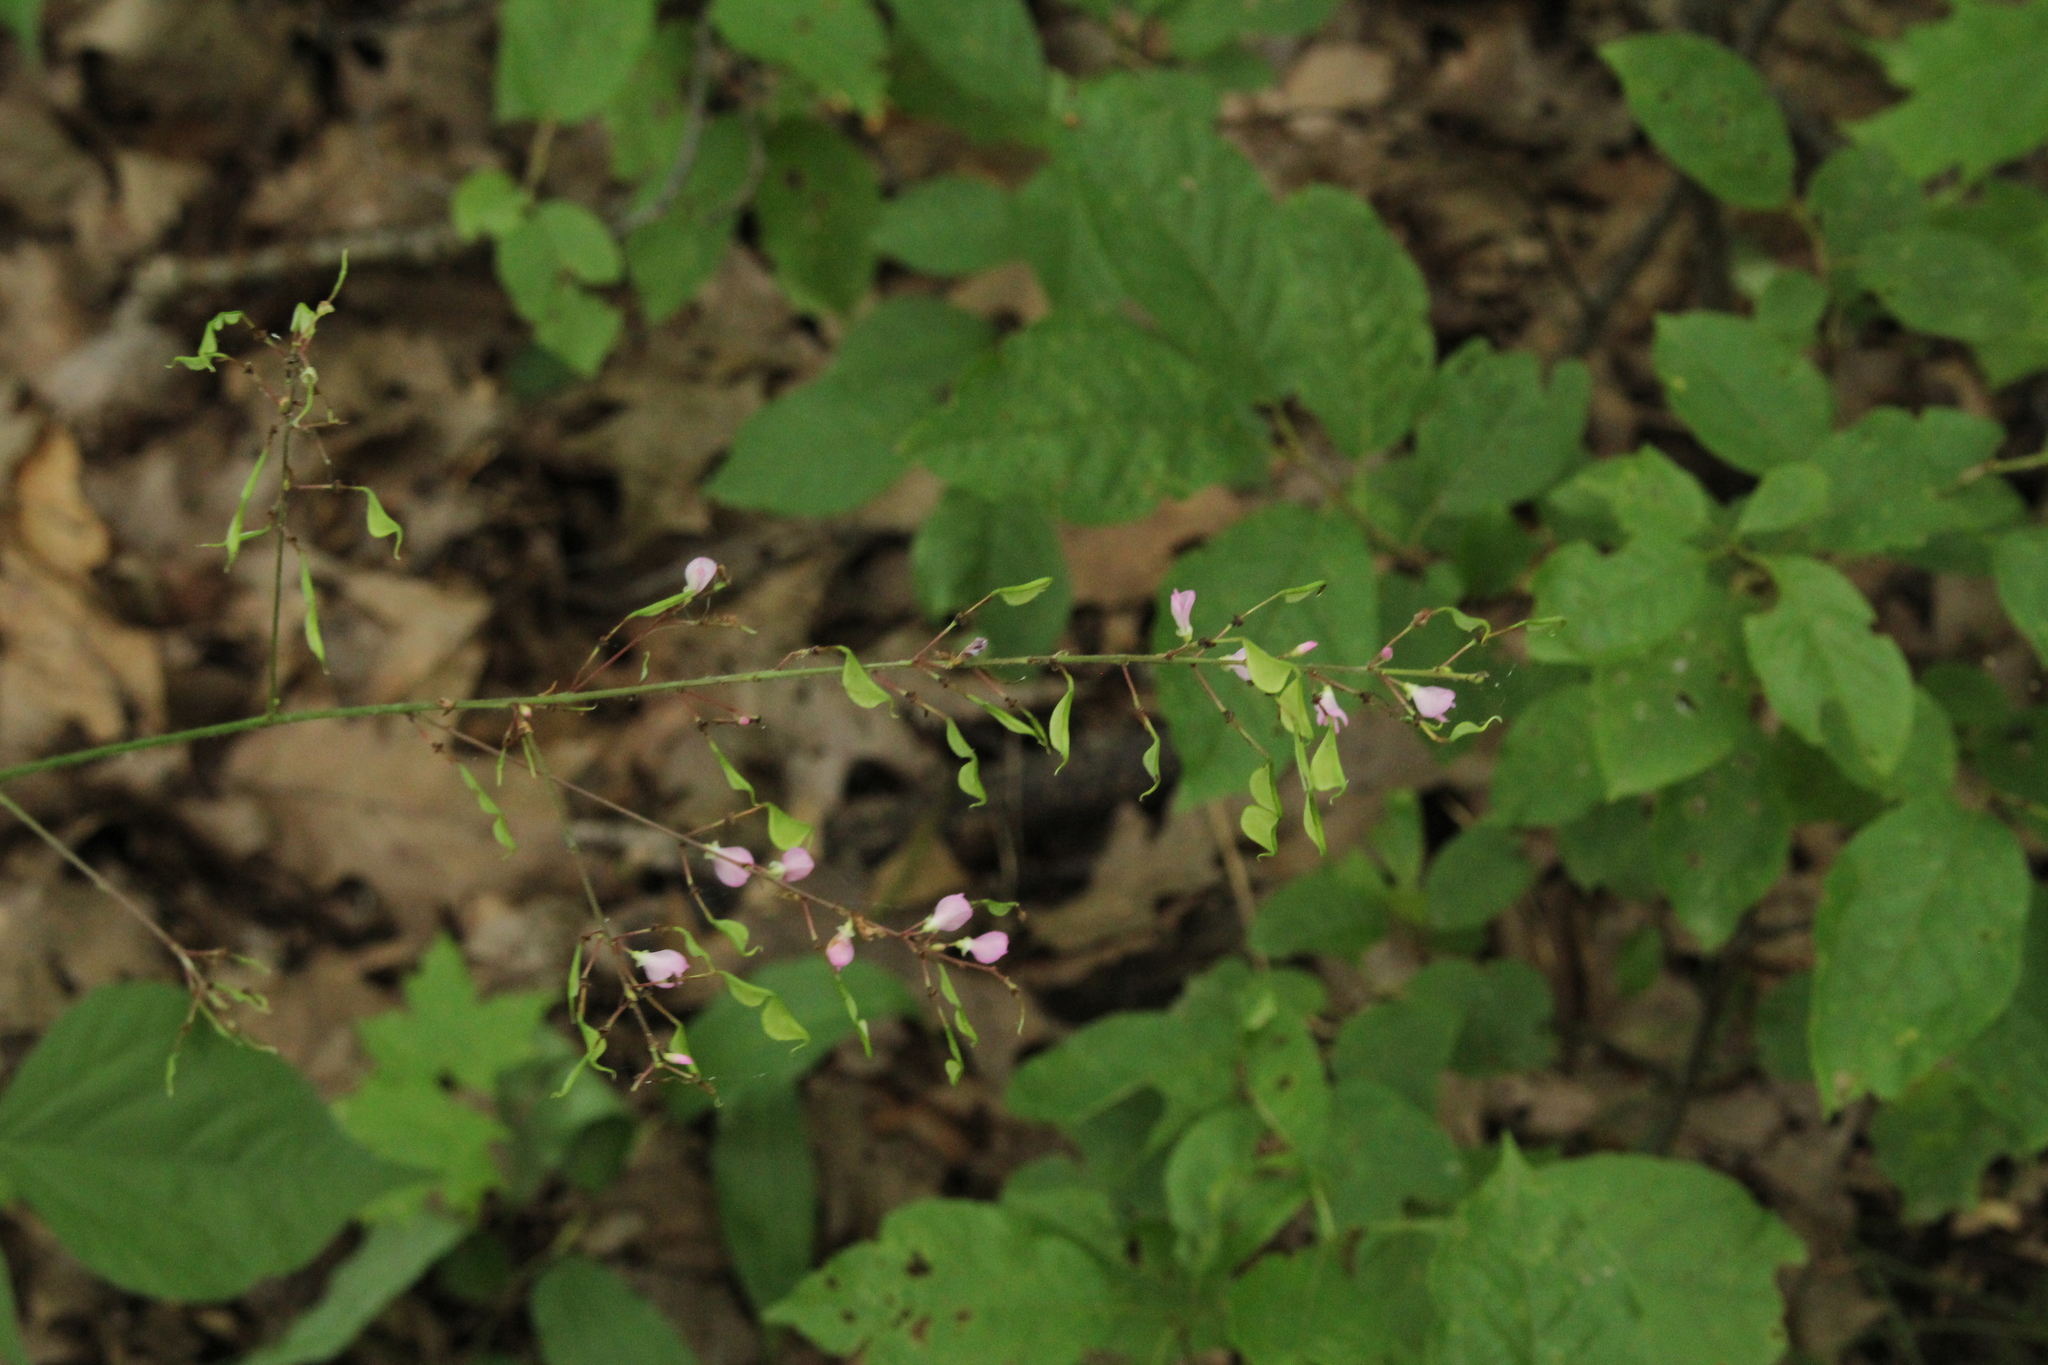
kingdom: Plantae
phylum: Tracheophyta
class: Magnoliopsida
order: Fabales
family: Fabaceae
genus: Hylodesmum
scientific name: Hylodesmum glutinosum
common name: Clustered-leaved tick-trefoil
